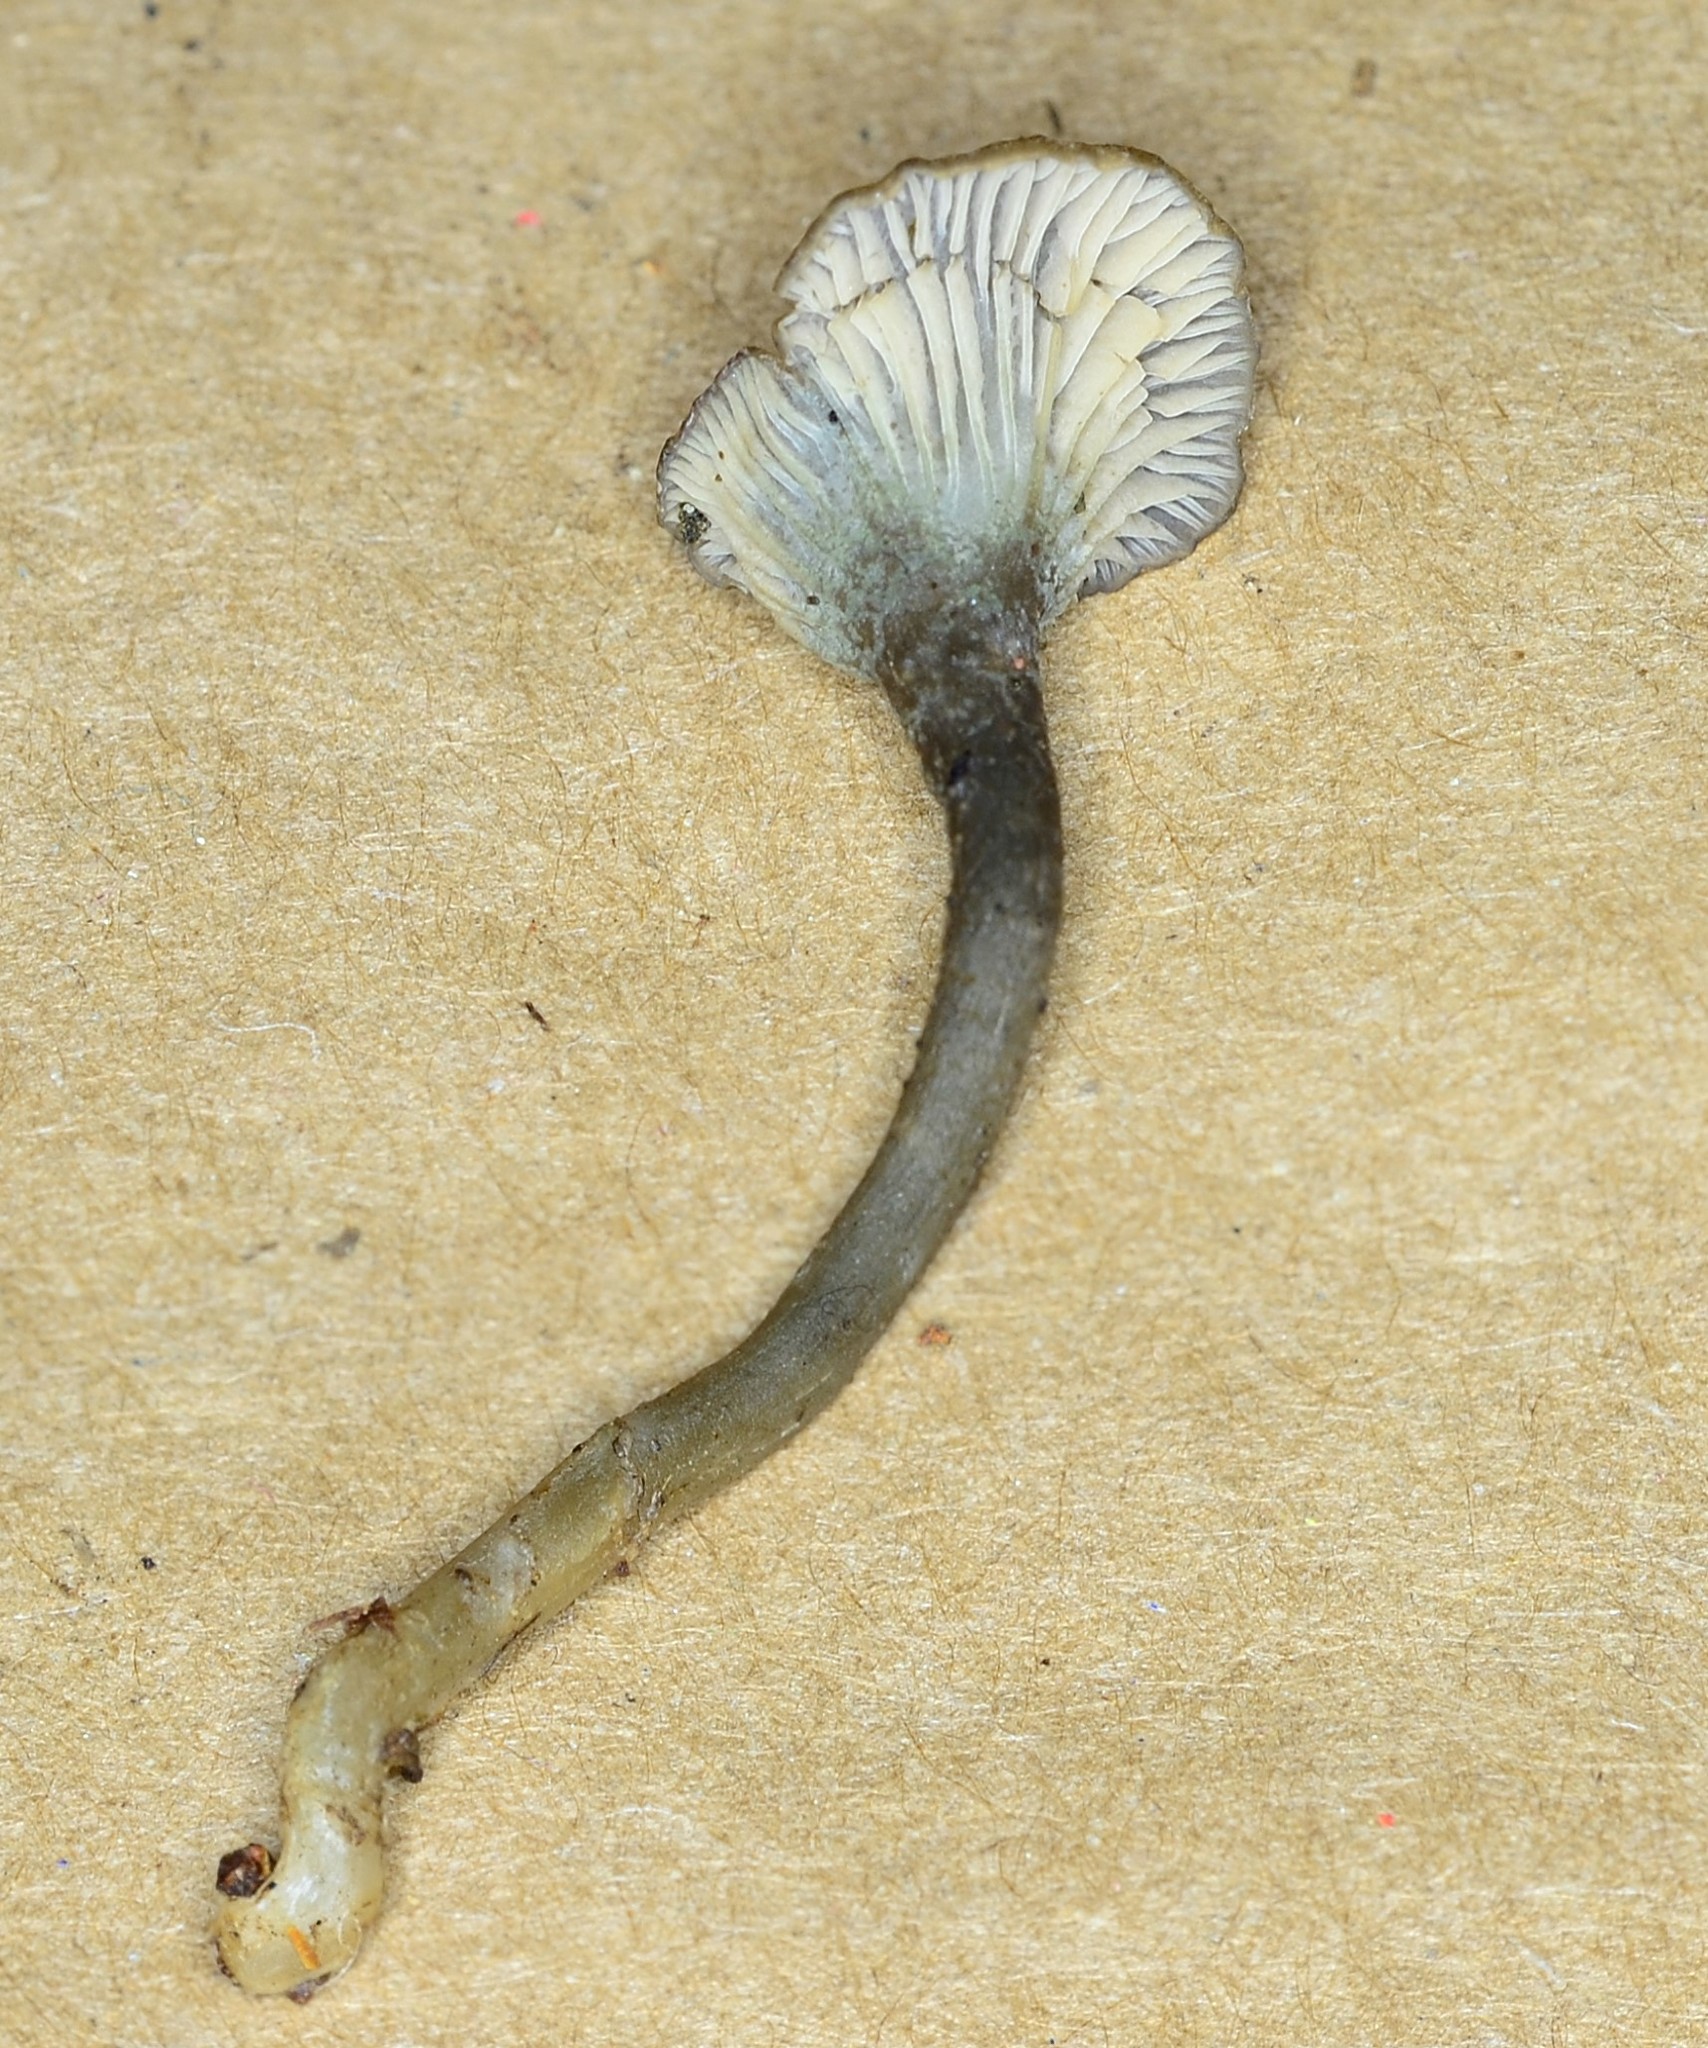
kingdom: Fungi
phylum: Basidiomycota
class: Agaricomycetes
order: Agaricales
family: Hygrophoraceae
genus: Arrhenia
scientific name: Arrhenia chlorocyanea
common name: Verdigris navel
